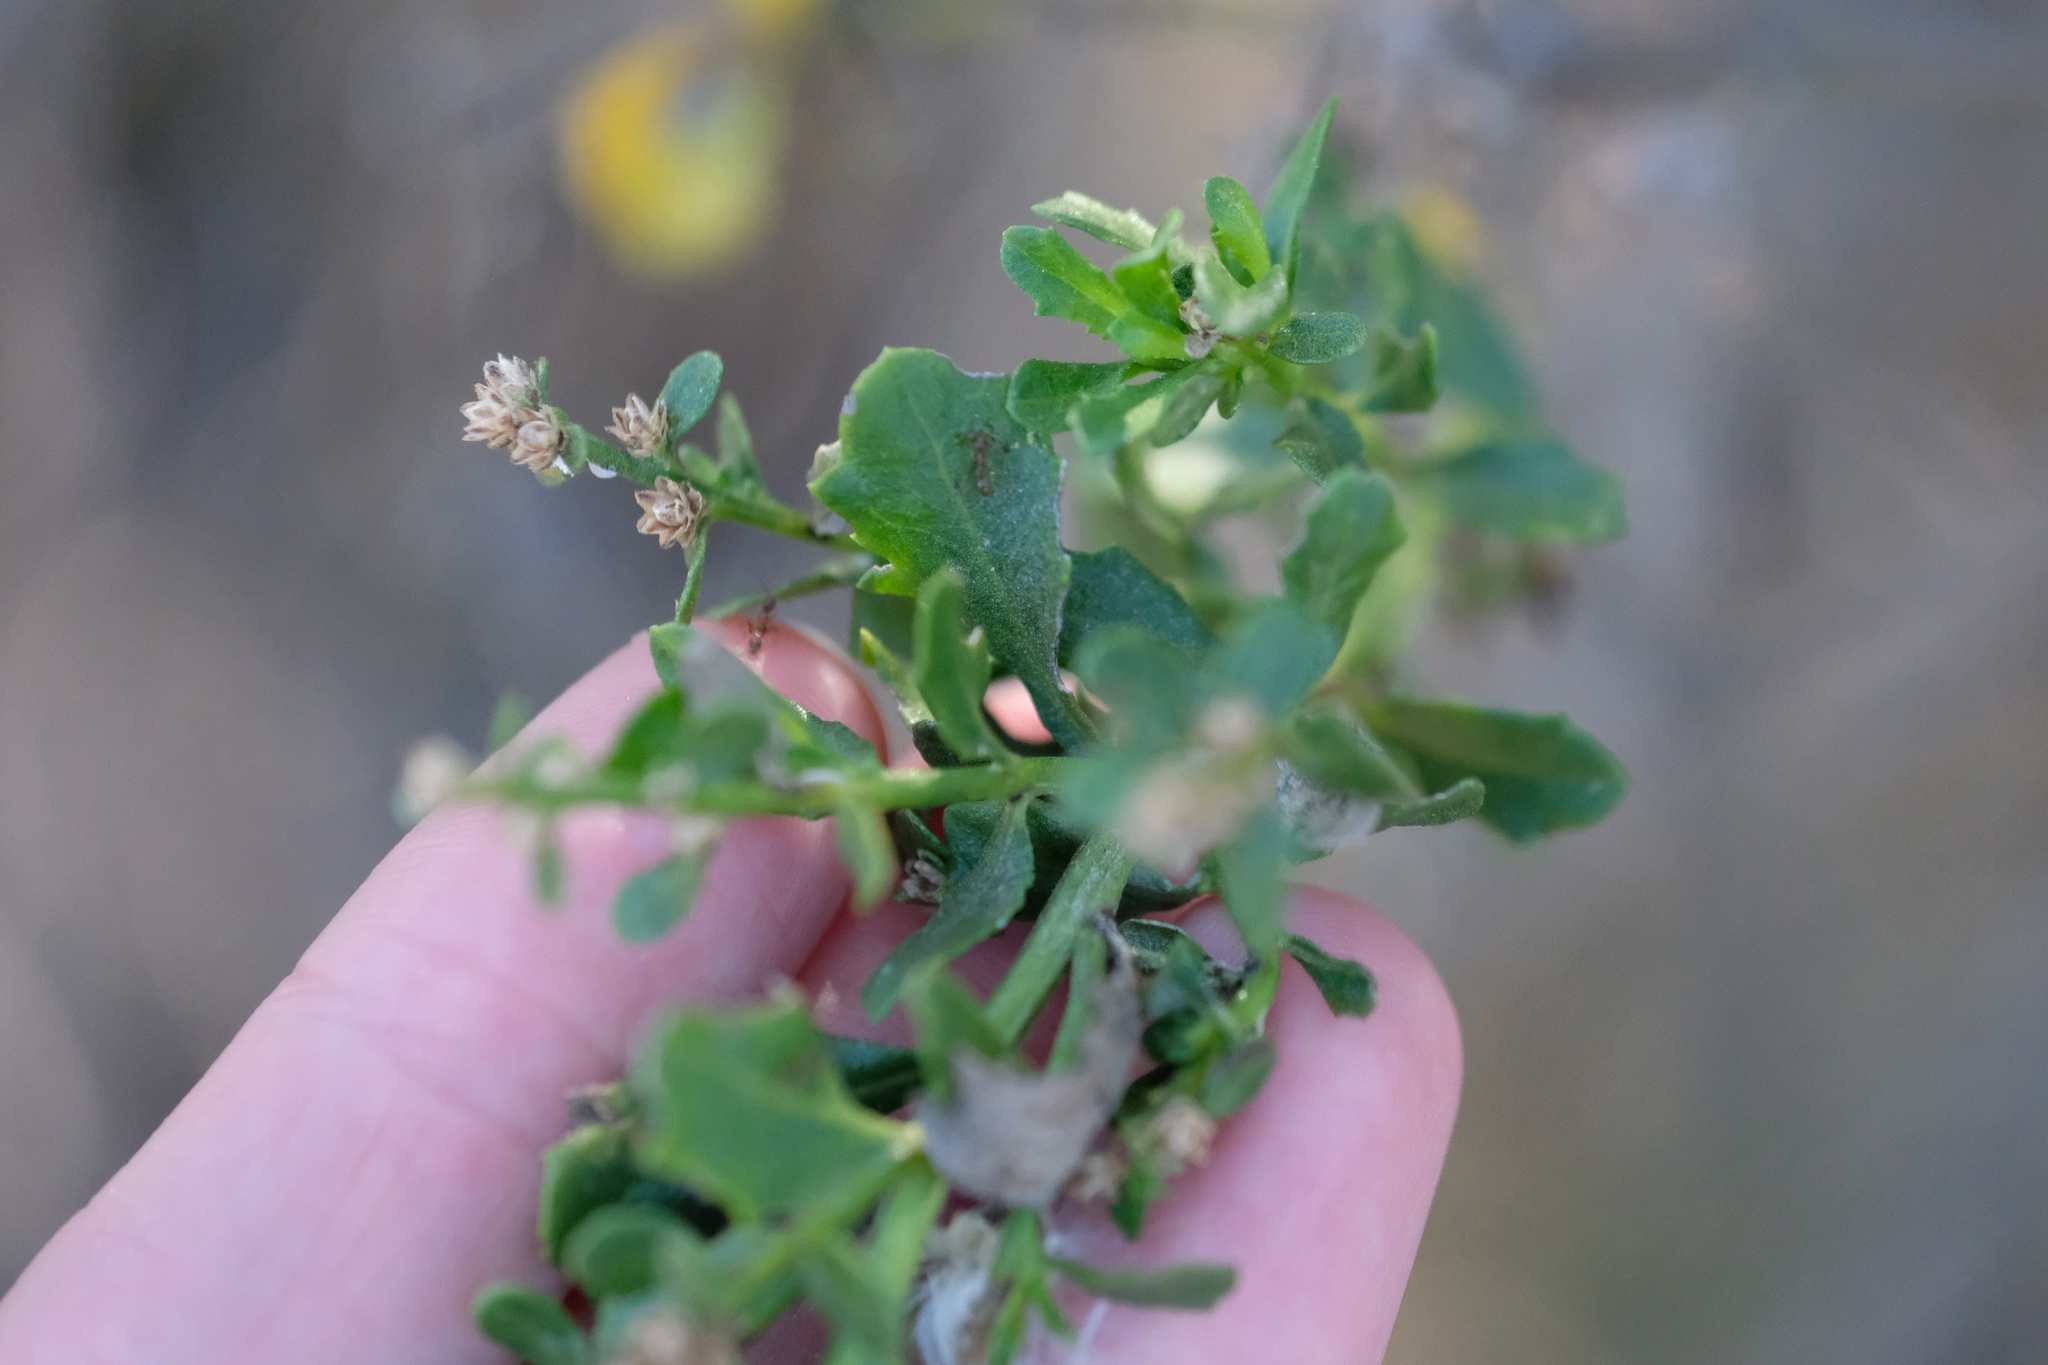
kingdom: Plantae
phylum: Tracheophyta
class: Magnoliopsida
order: Asterales
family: Asteraceae
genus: Baccharis
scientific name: Baccharis pilularis
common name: Coyotebrush
